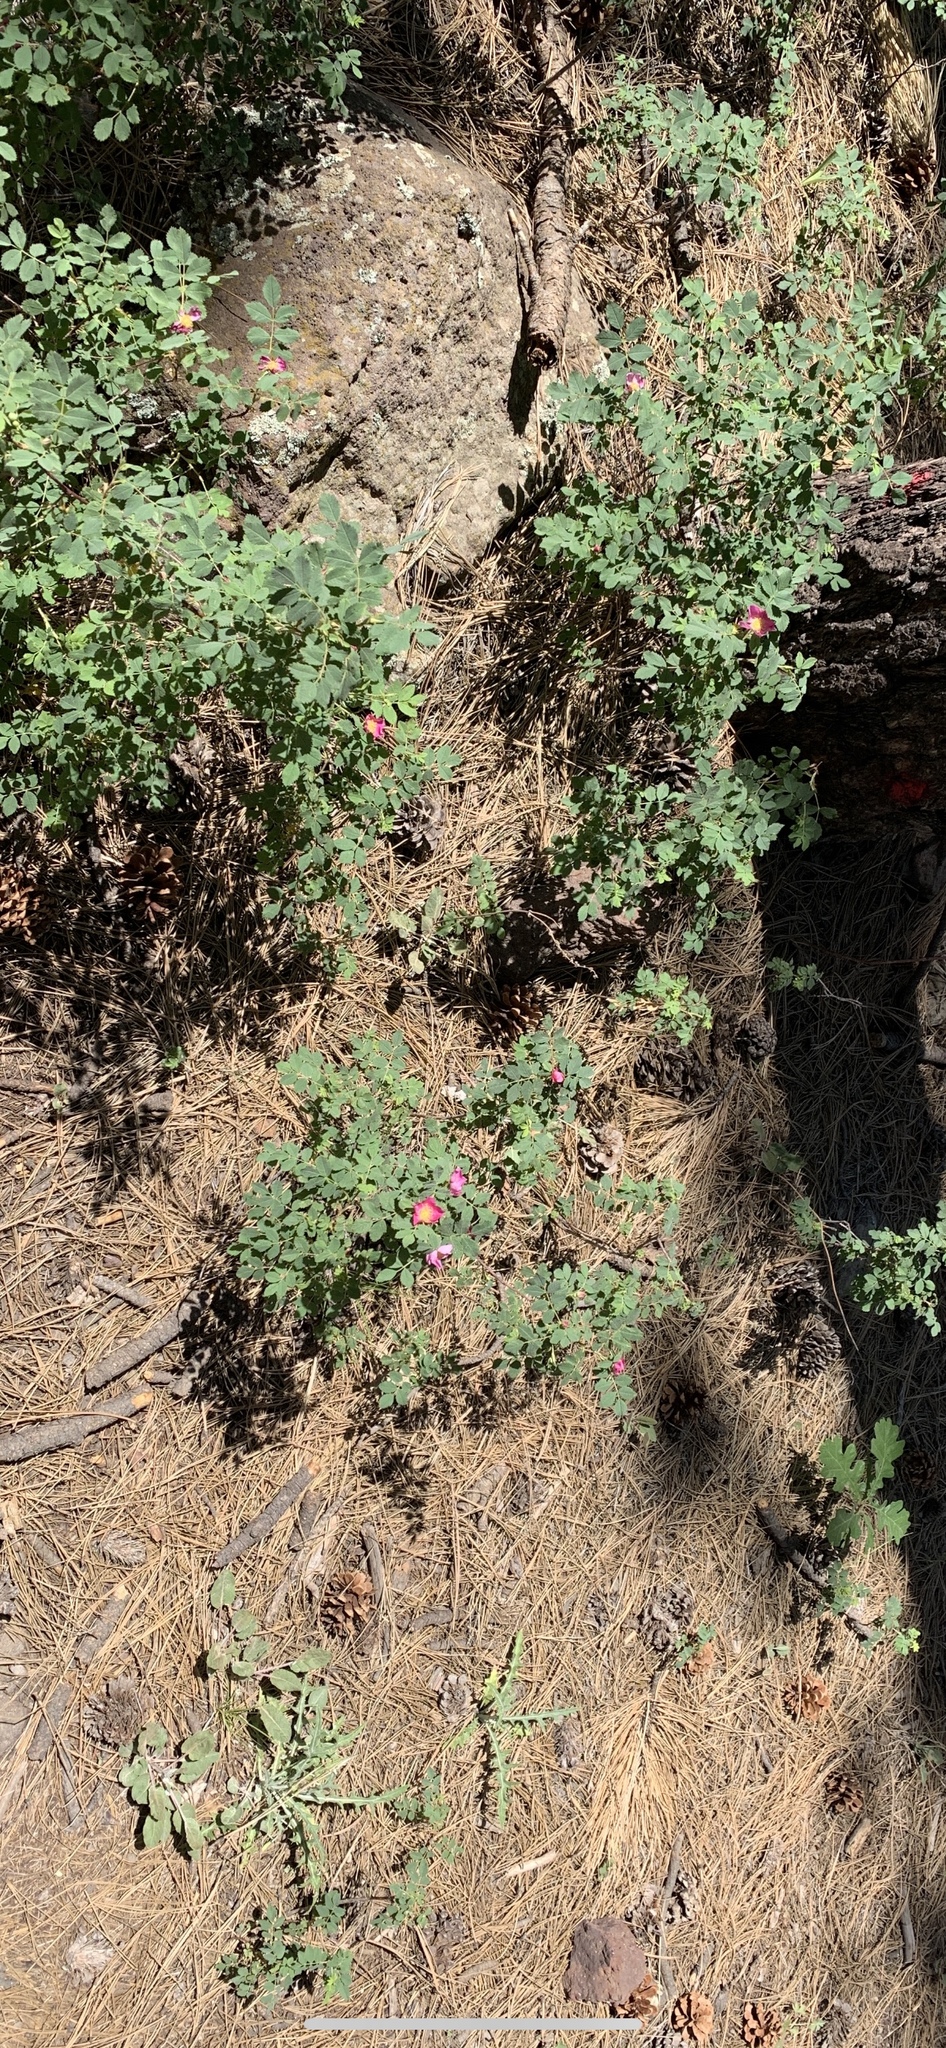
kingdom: Plantae
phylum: Tracheophyta
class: Magnoliopsida
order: Rosales
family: Rosaceae
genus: Rosa
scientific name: Rosa woodsii
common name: Woods's rose
